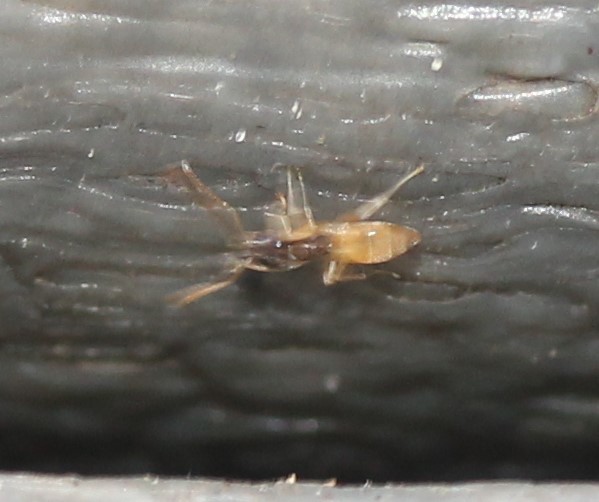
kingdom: Animalia
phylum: Arthropoda
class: Insecta
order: Hymenoptera
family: Formicidae
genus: Tapinoma
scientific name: Tapinoma melanocephalum
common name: Ghost ant
